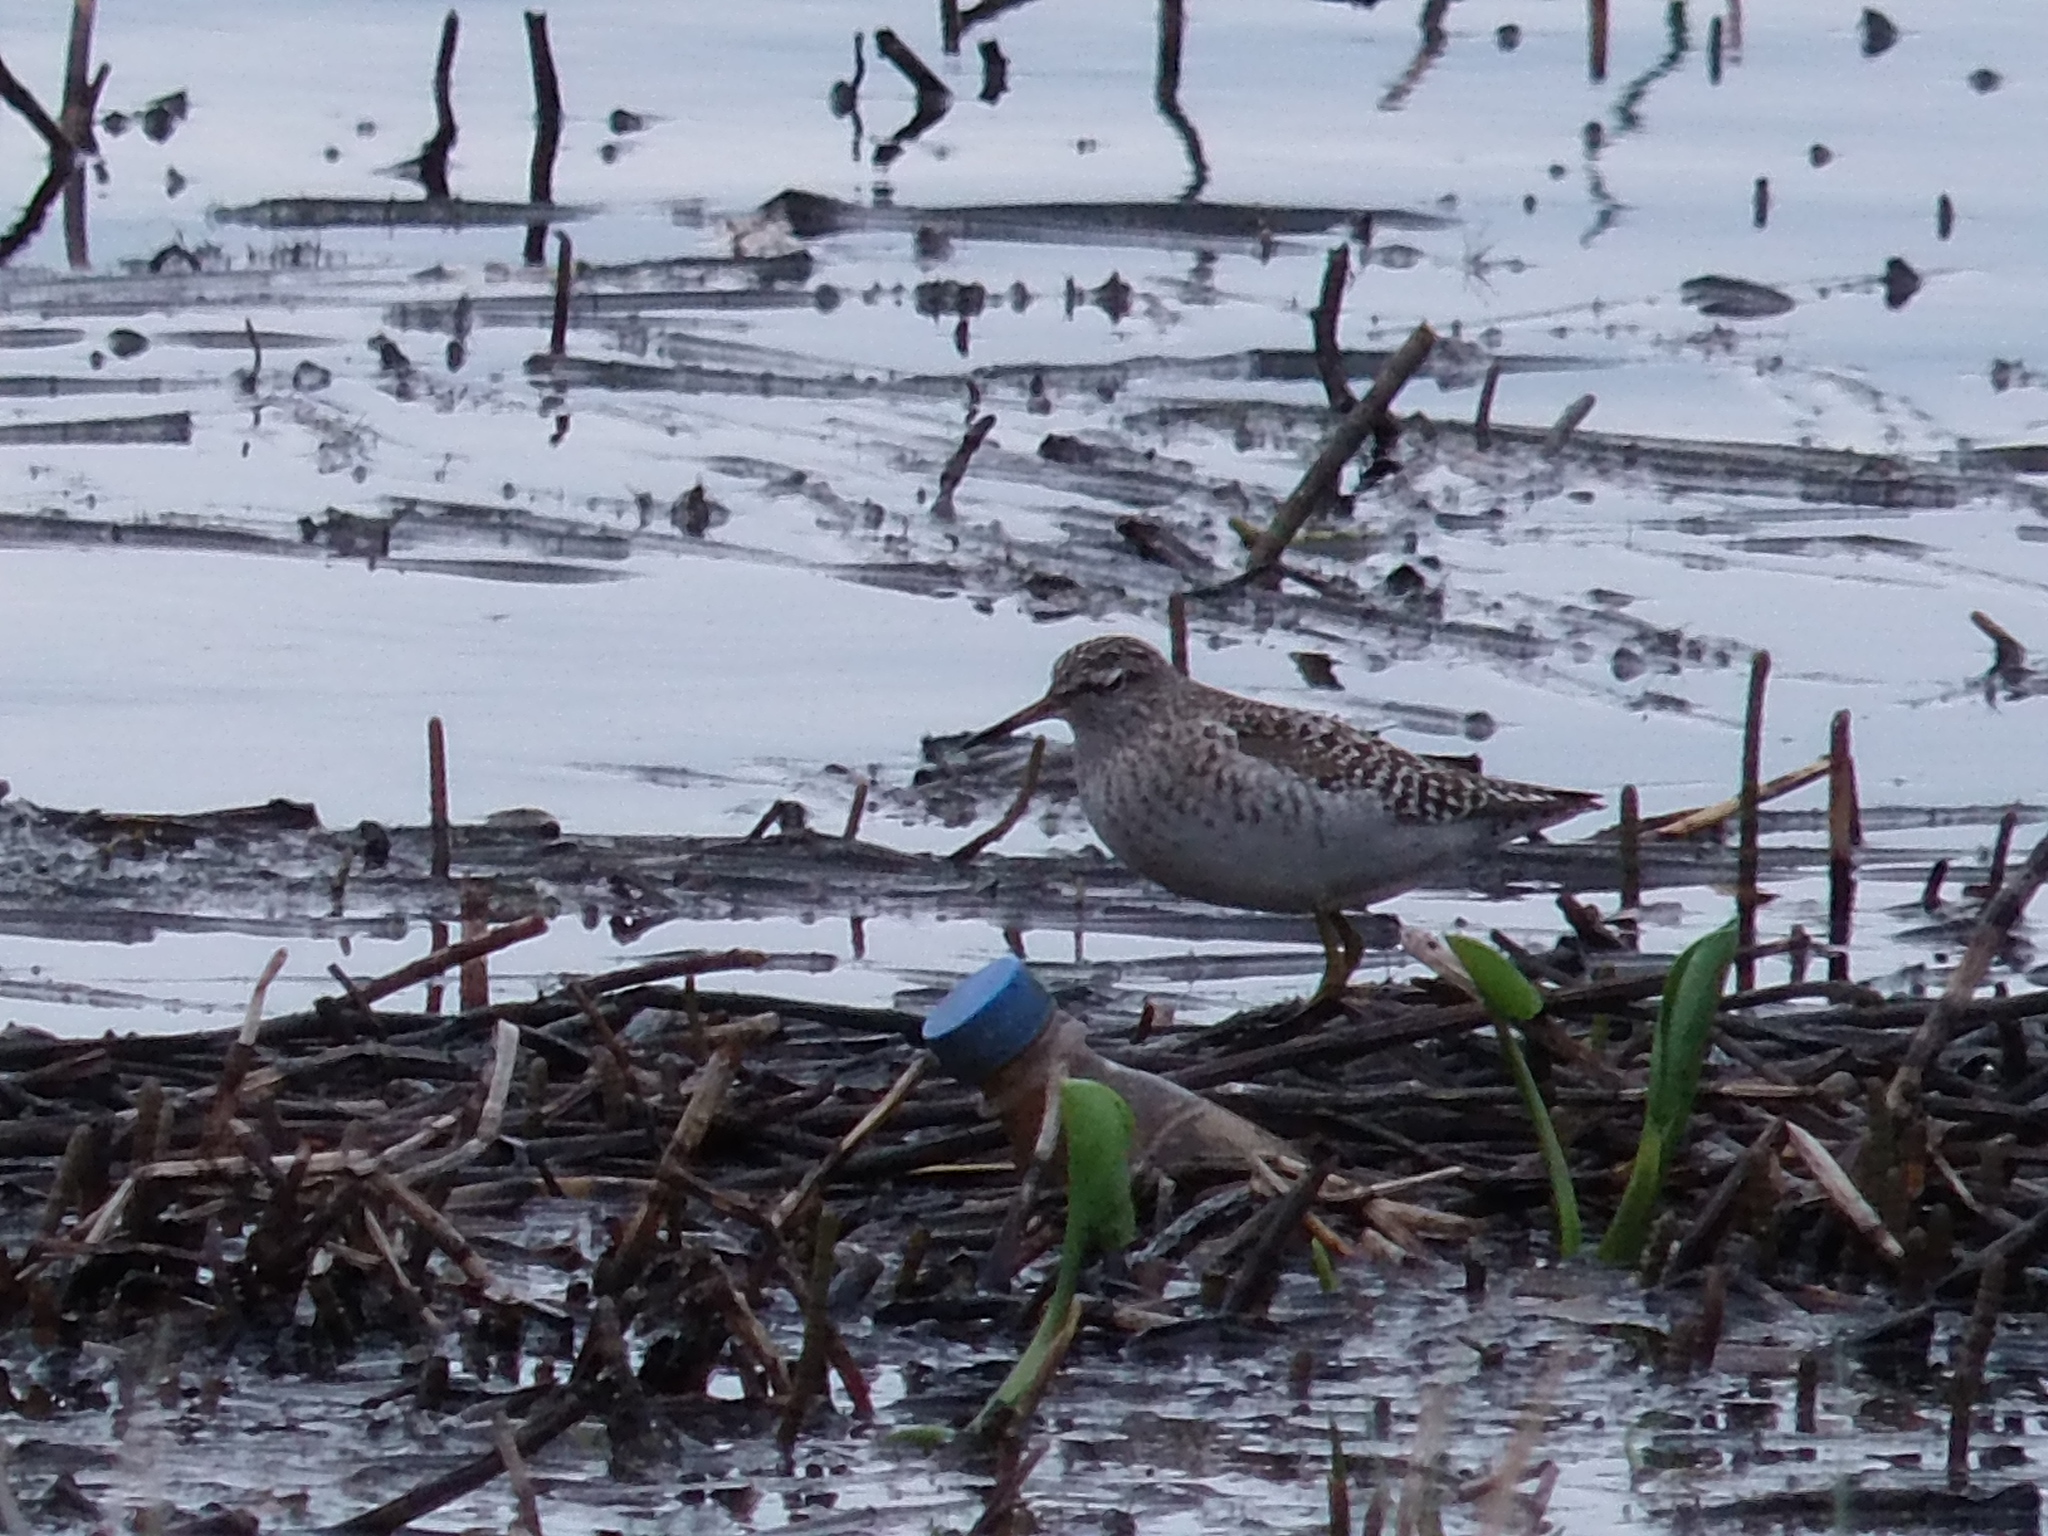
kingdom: Animalia
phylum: Chordata
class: Aves
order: Charadriiformes
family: Scolopacidae
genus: Tringa
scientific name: Tringa glareola
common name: Wood sandpiper
